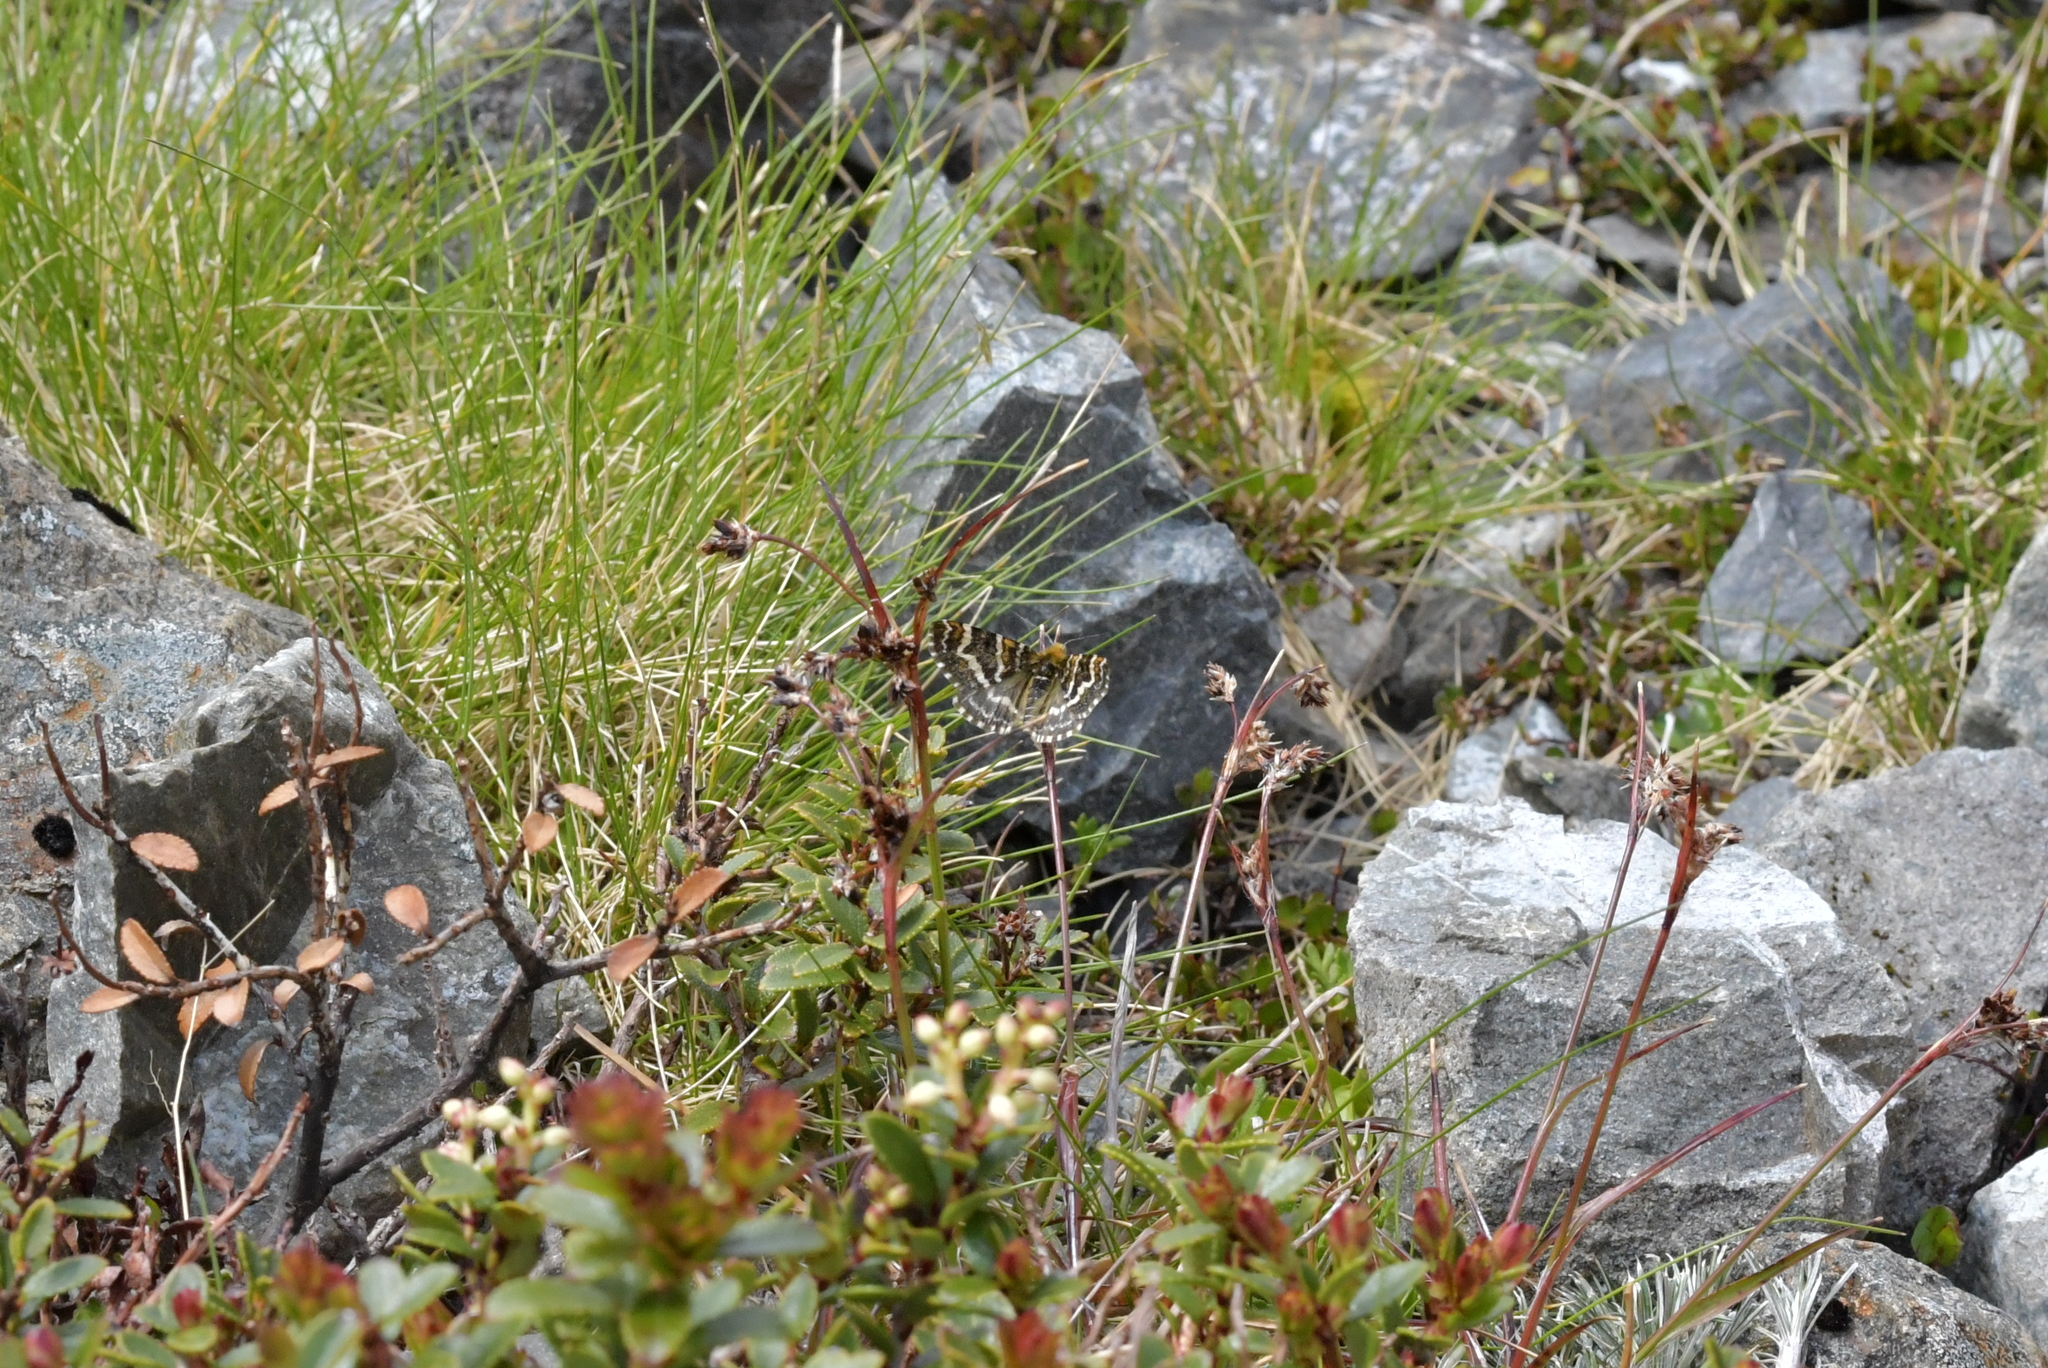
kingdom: Animalia
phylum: Arthropoda
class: Insecta
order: Lepidoptera
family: Geometridae
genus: Dasyuris
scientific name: Dasyuris callicrena
